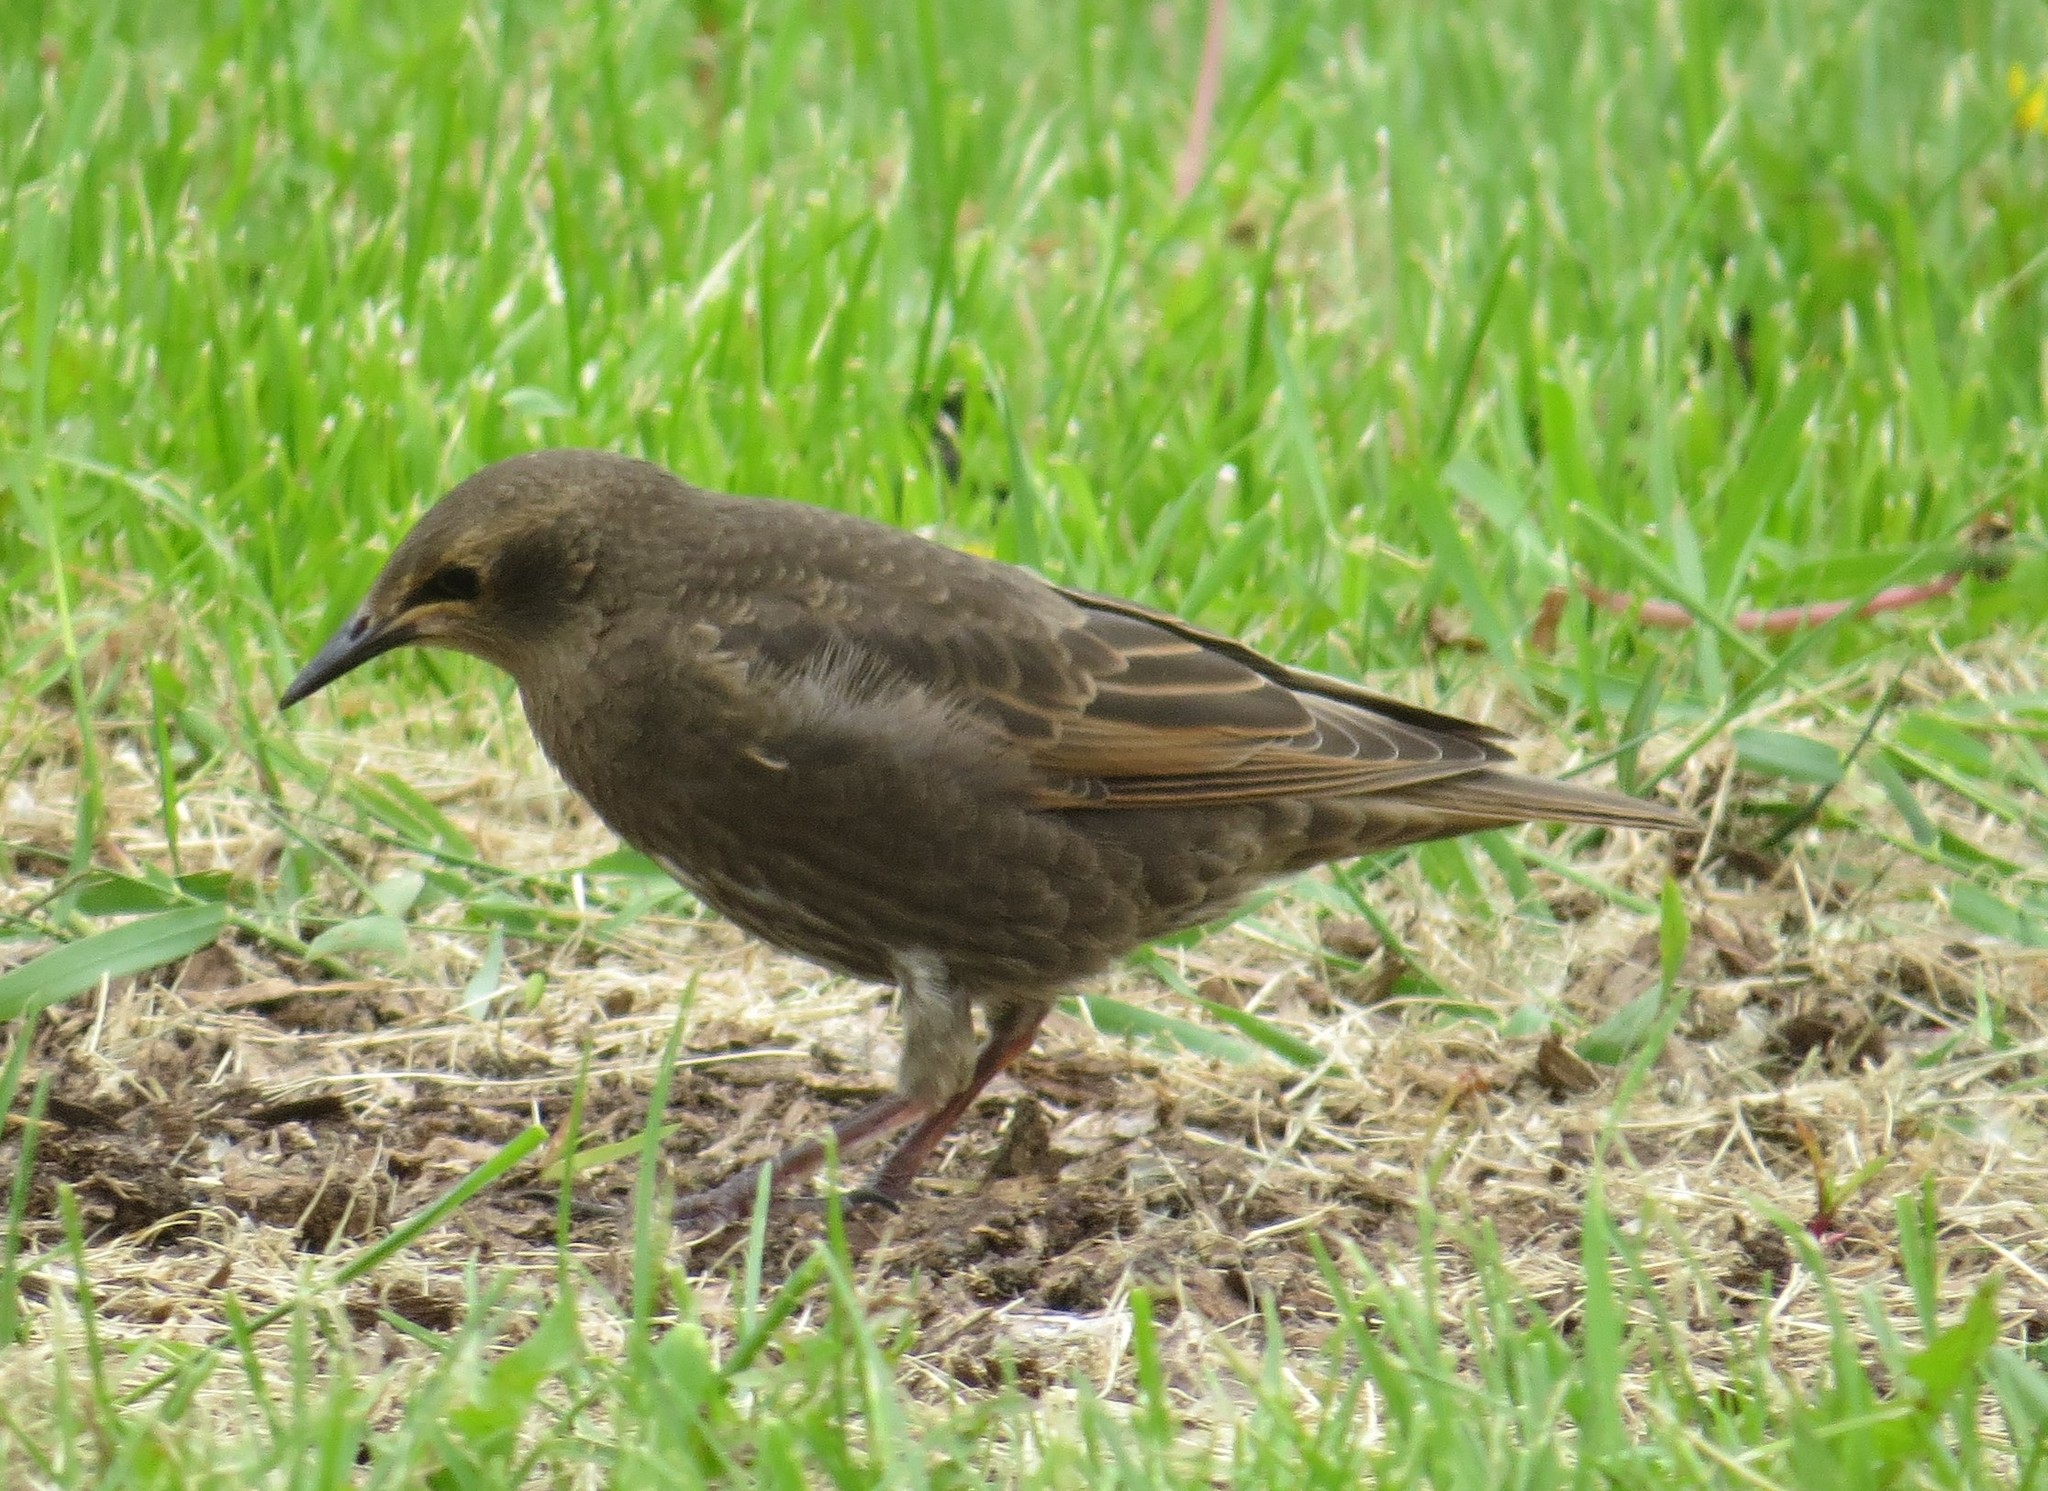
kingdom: Animalia
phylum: Chordata
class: Aves
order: Passeriformes
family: Sturnidae
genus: Sturnus
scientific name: Sturnus vulgaris
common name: Common starling
